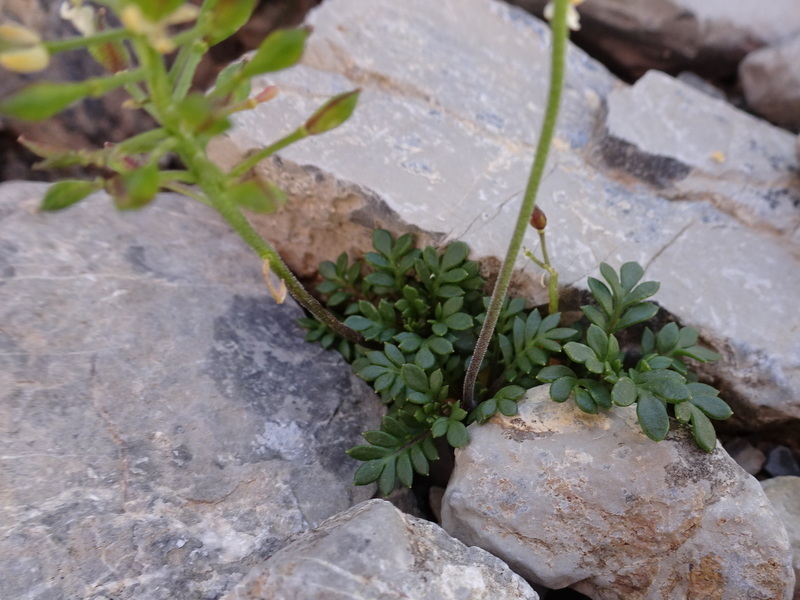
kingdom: Plantae
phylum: Tracheophyta
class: Magnoliopsida
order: Brassicales
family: Brassicaceae
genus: Hornungia
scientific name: Hornungia alpina
